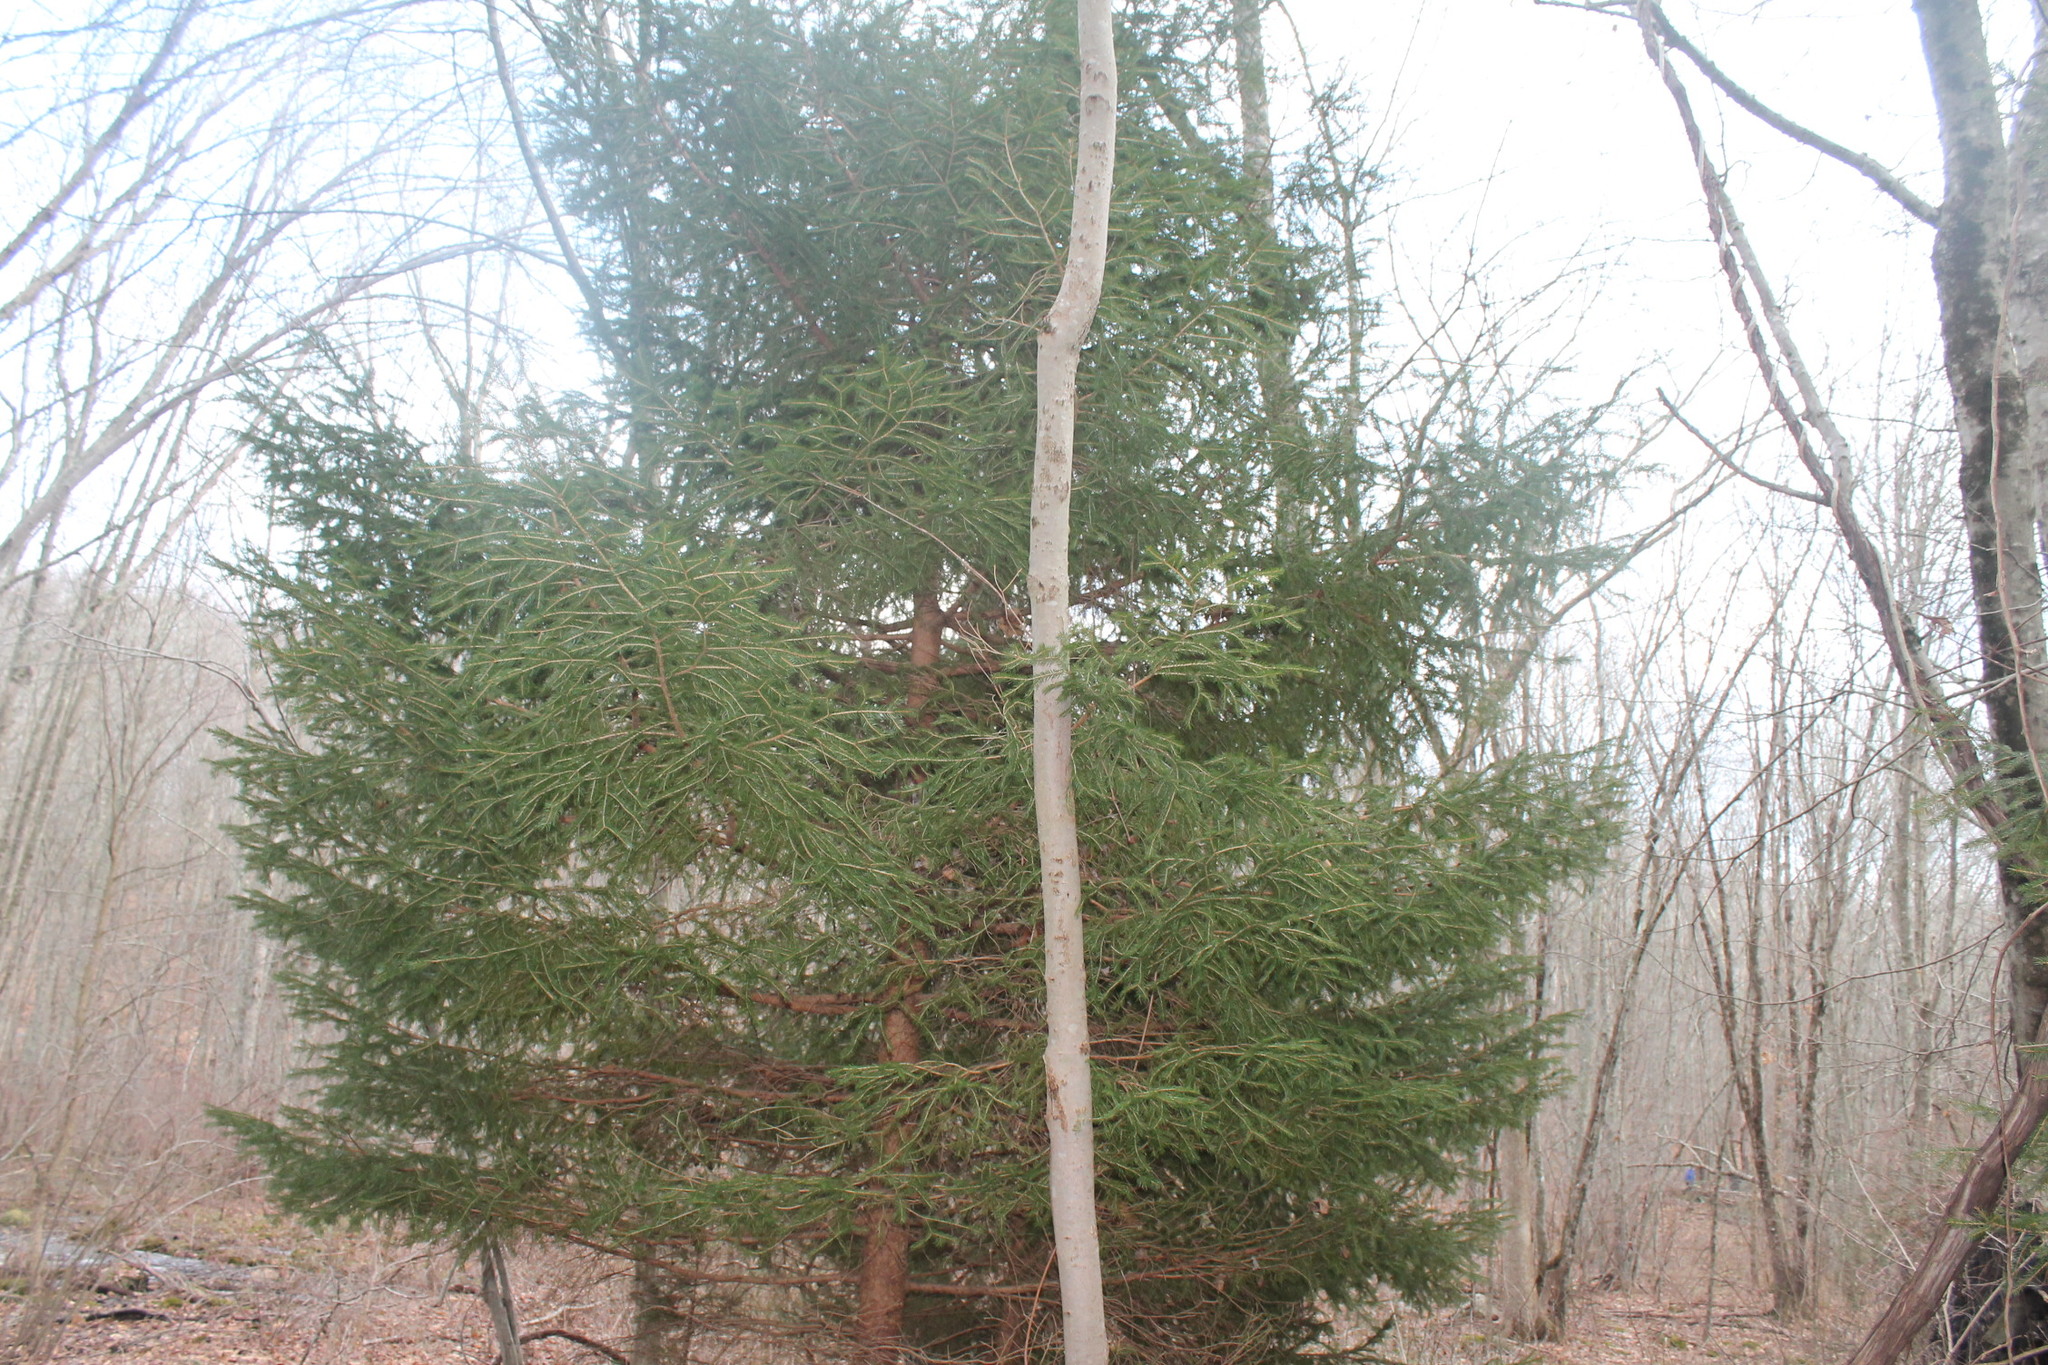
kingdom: Plantae
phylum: Tracheophyta
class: Pinopsida
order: Pinales
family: Pinaceae
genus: Picea
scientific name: Picea abies
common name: Norway spruce
